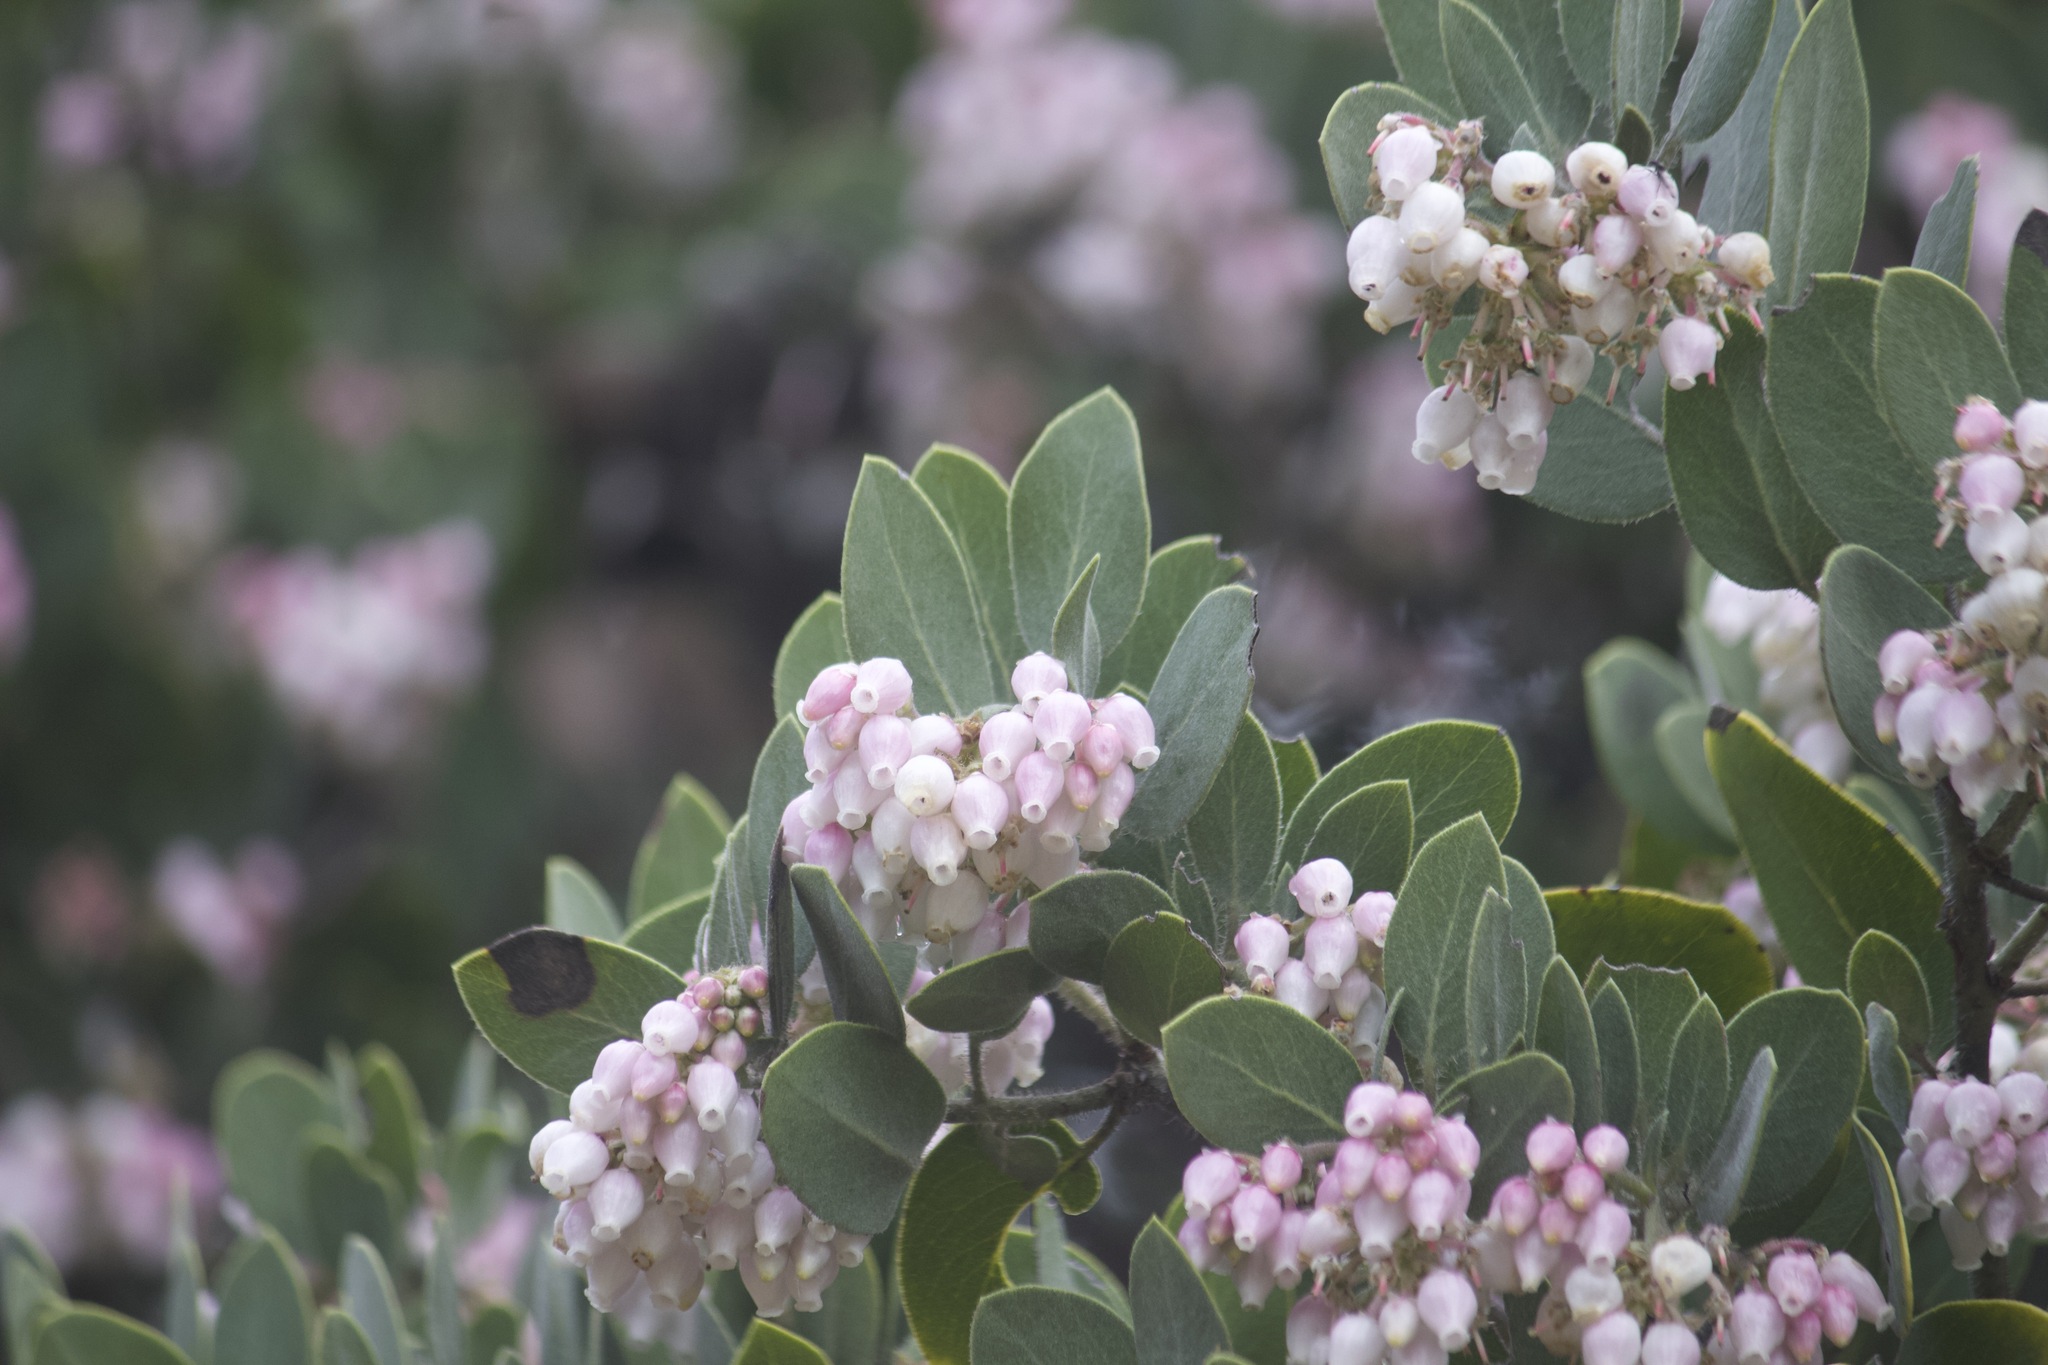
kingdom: Plantae
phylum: Tracheophyta
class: Magnoliopsida
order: Ericales
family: Ericaceae
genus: Arctostaphylos
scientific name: Arctostaphylos glandulosa
